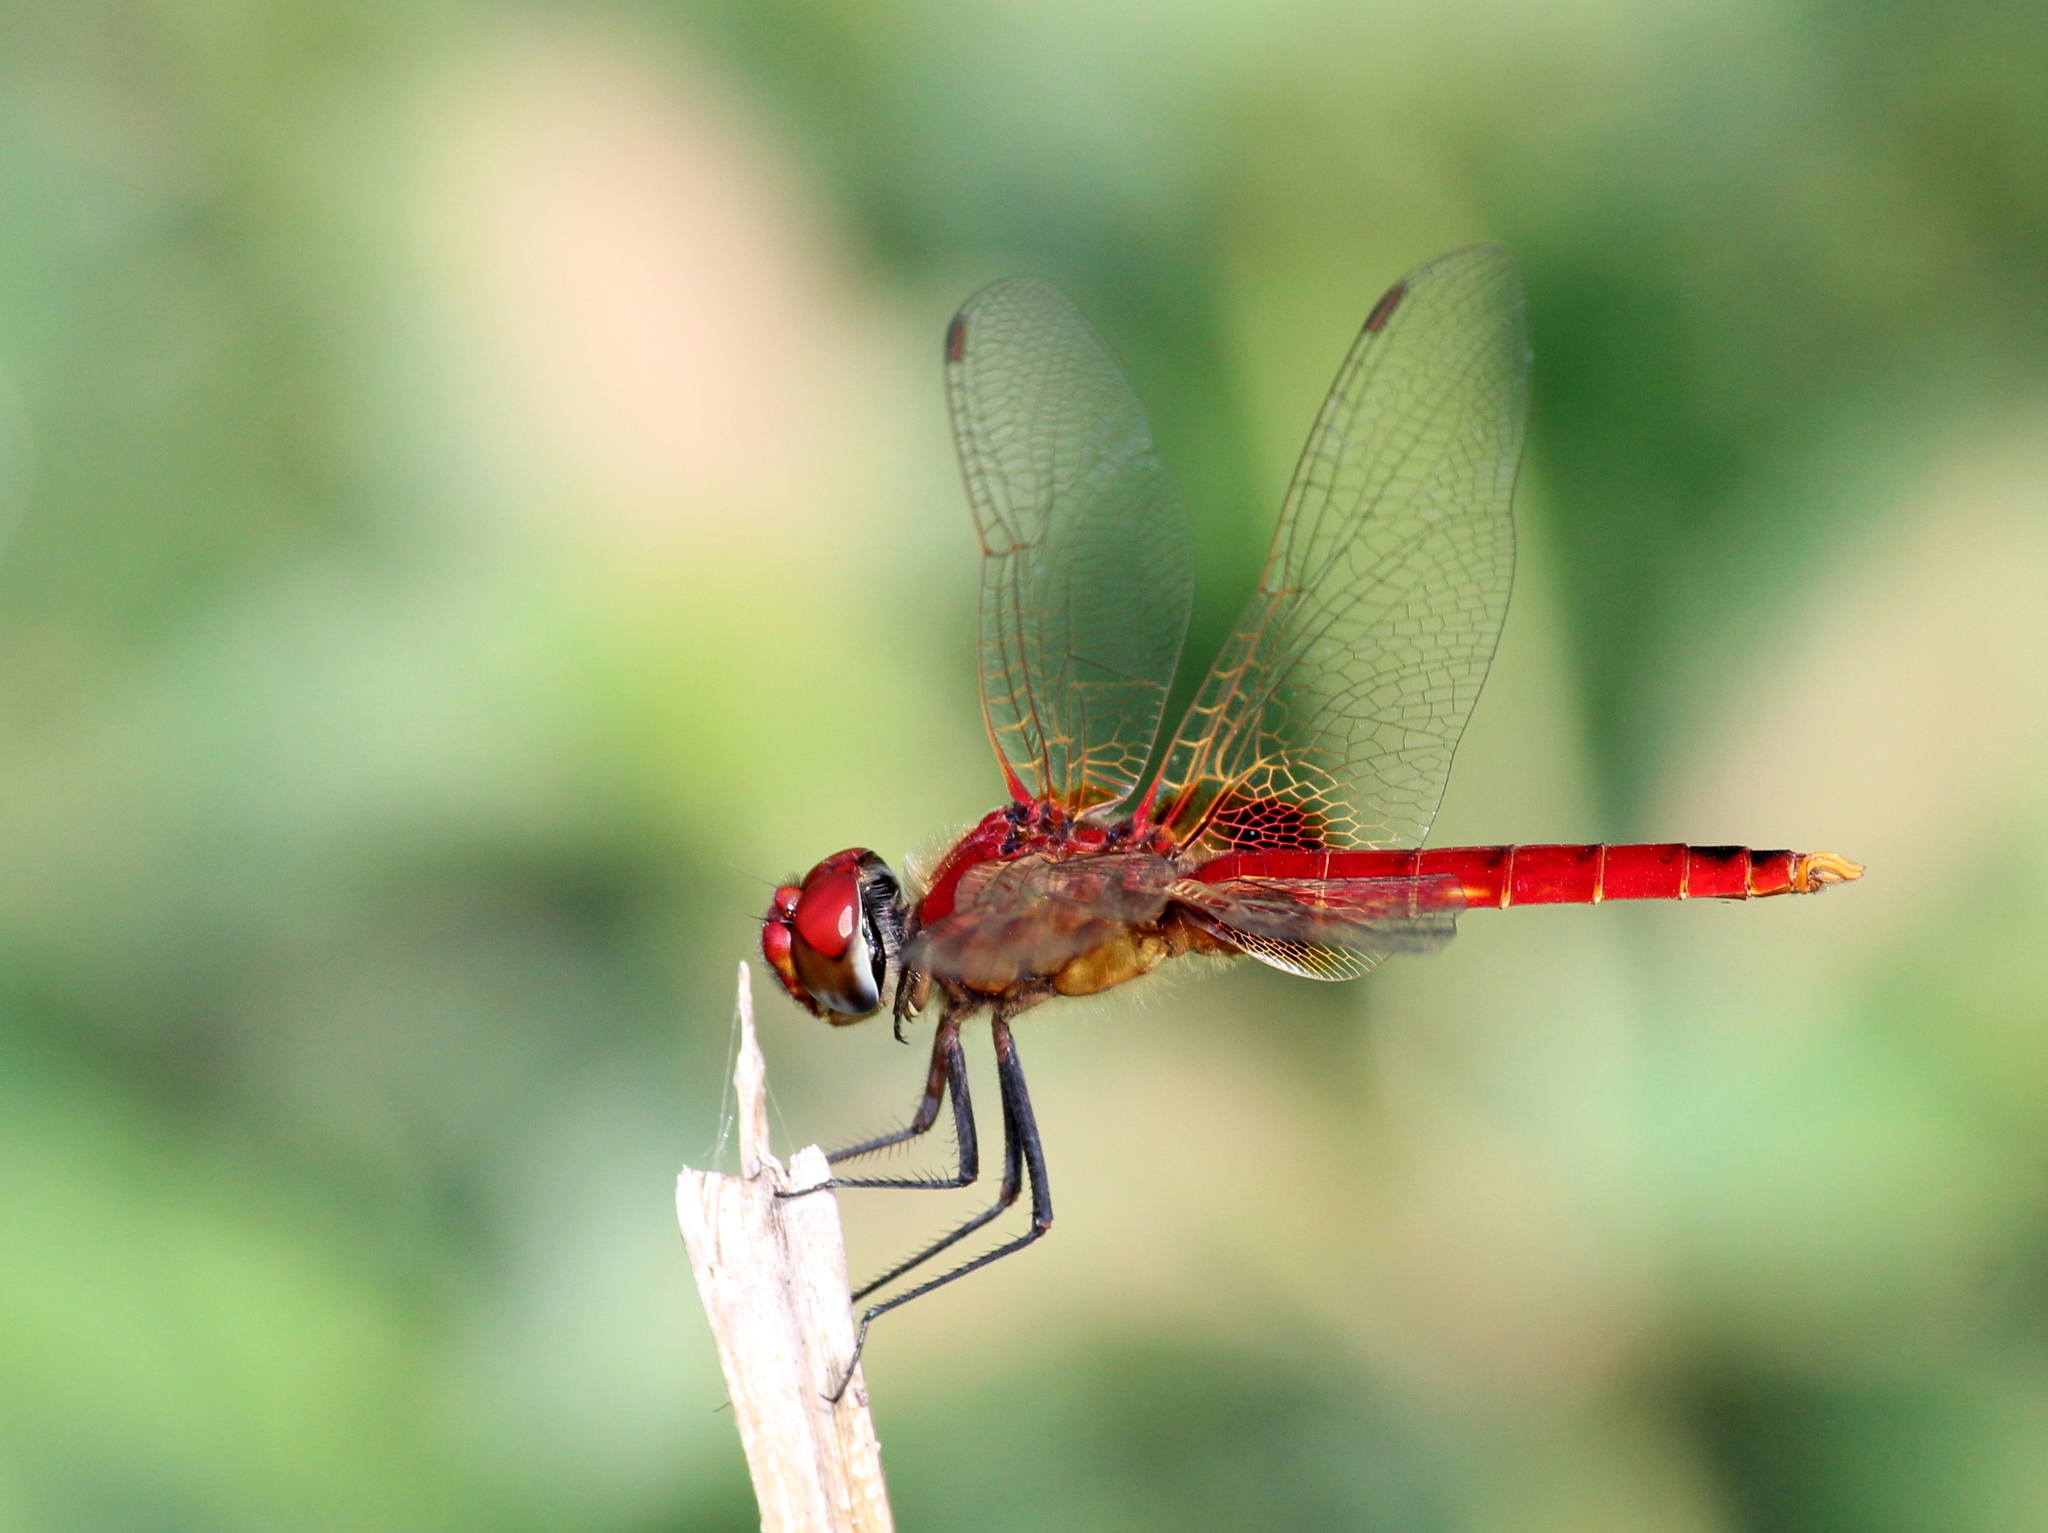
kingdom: Animalia
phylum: Arthropoda
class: Insecta
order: Odonata
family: Libellulidae
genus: Urothemis
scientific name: Urothemis signata
